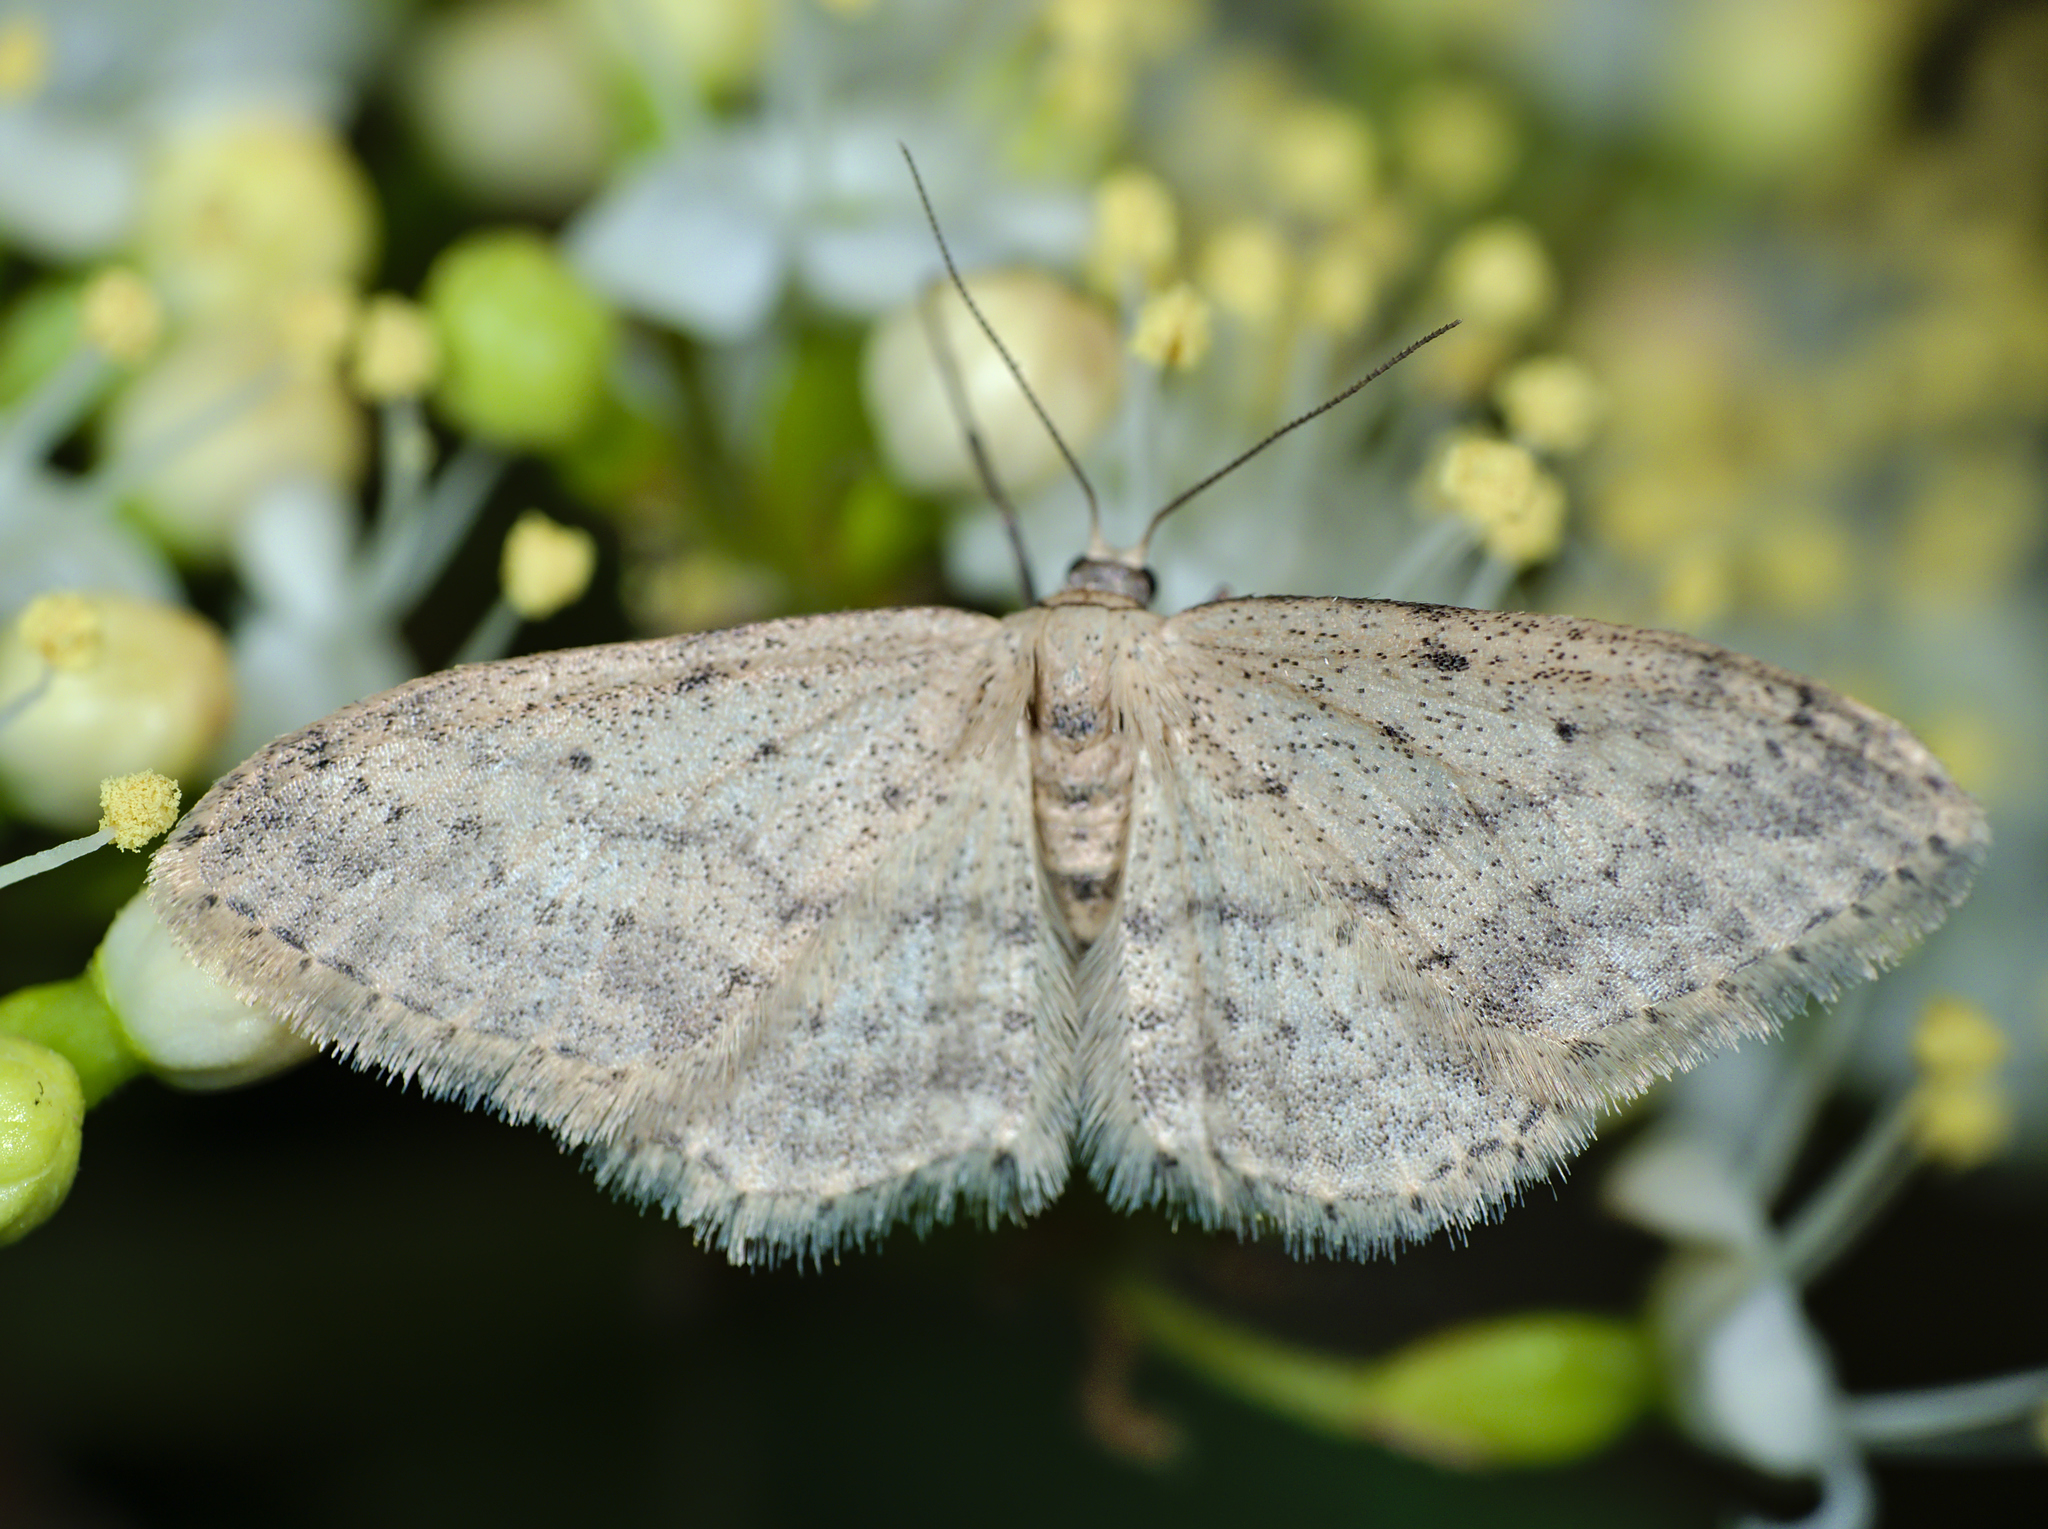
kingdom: Animalia
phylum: Arthropoda
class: Insecta
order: Lepidoptera
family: Geometridae
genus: Idaea
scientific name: Idaea seriata
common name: Small dusty wave
